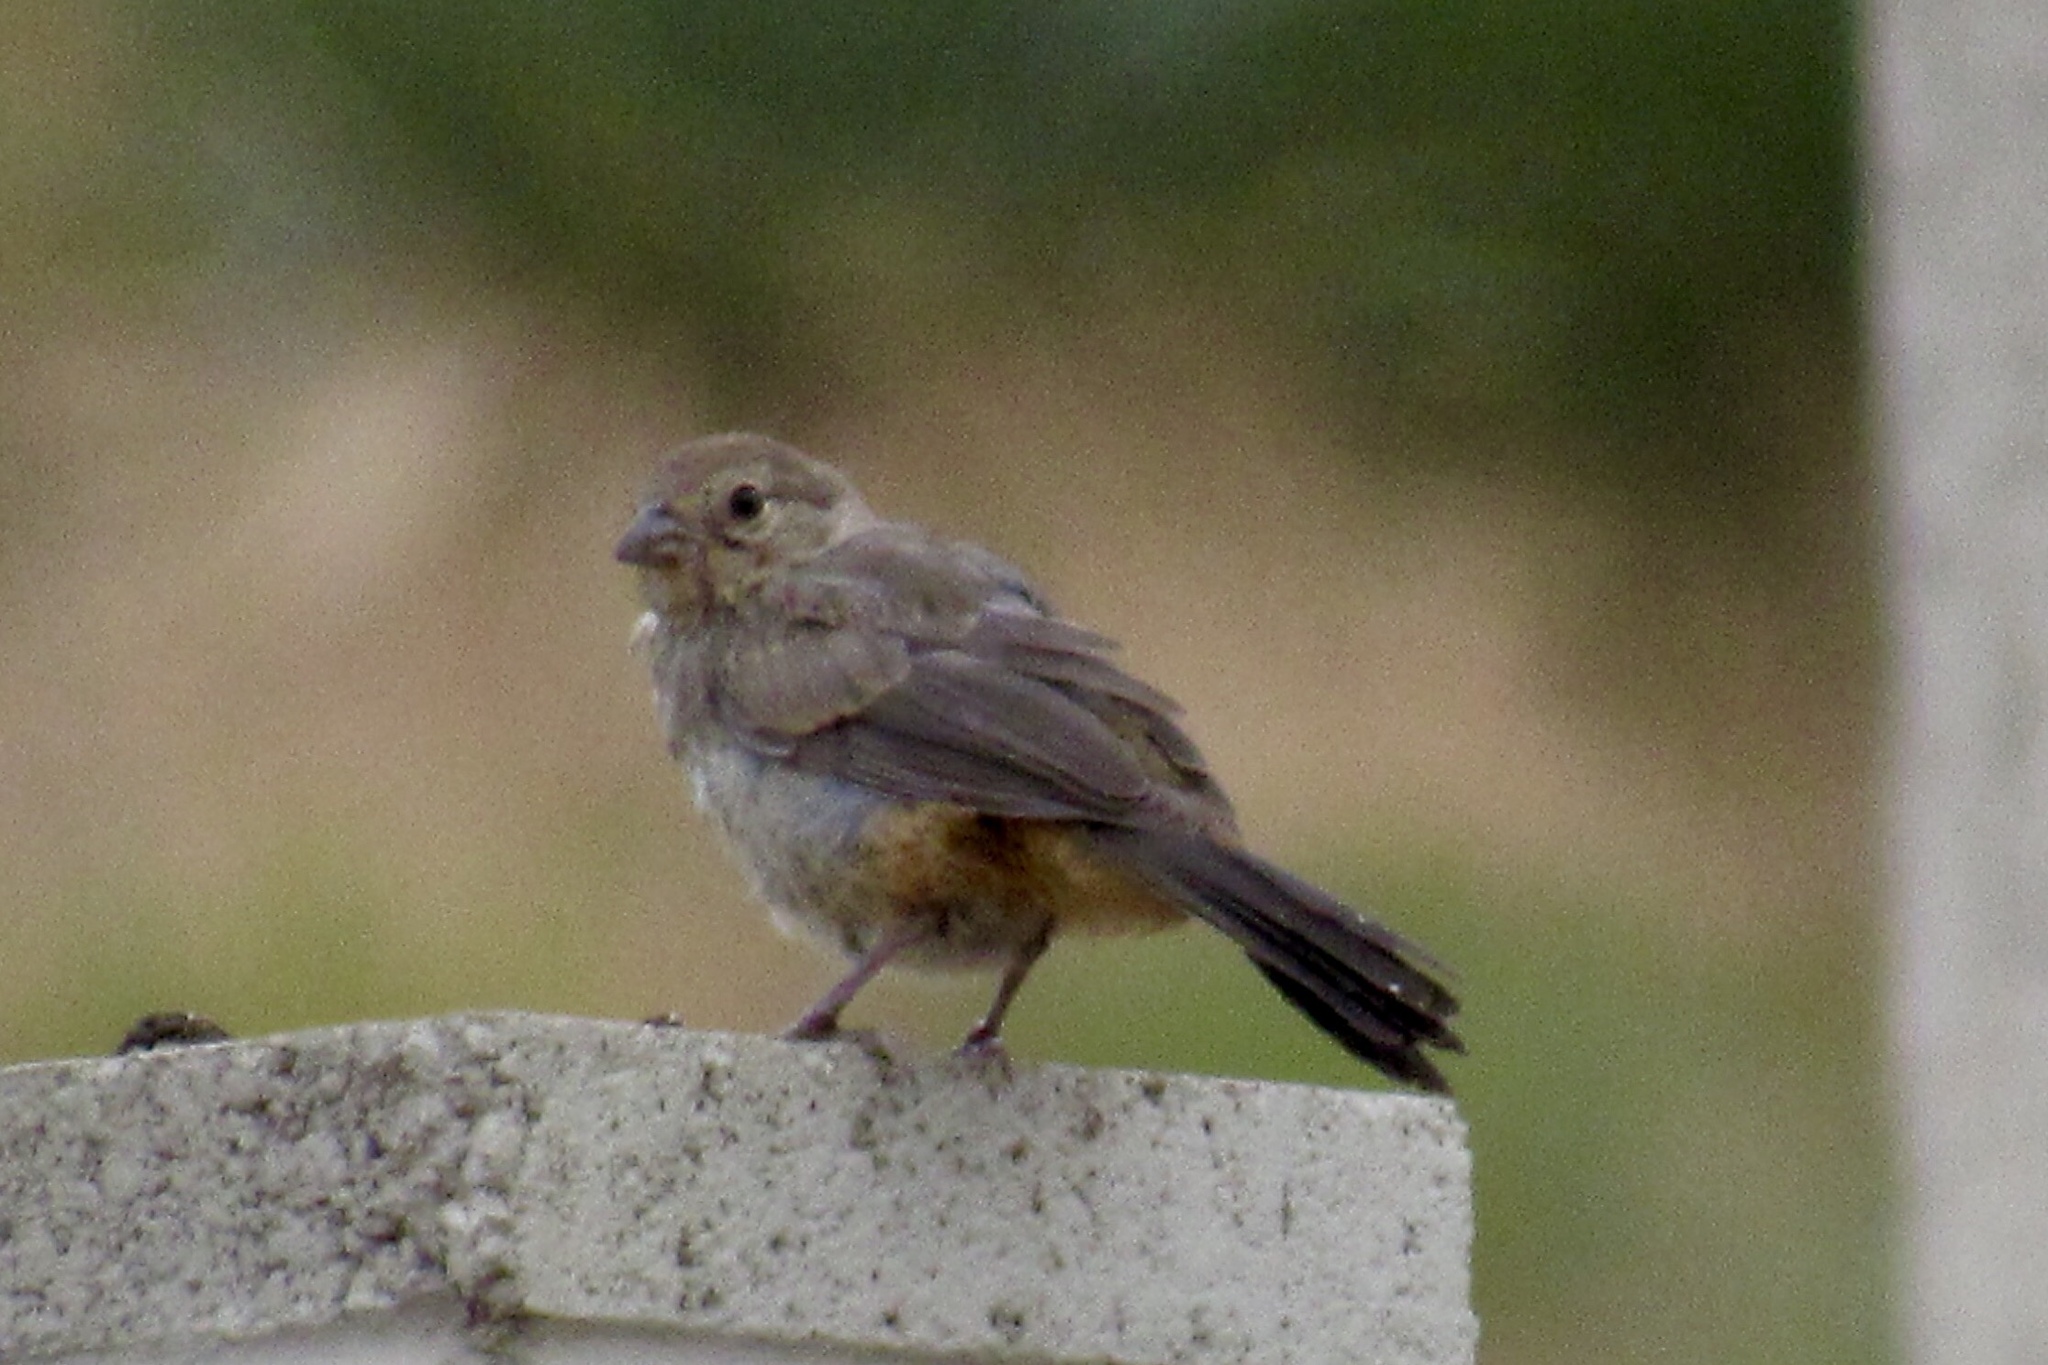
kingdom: Animalia
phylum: Chordata
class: Aves
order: Passeriformes
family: Passerellidae
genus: Melozone
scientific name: Melozone fusca
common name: Canyon towhee
